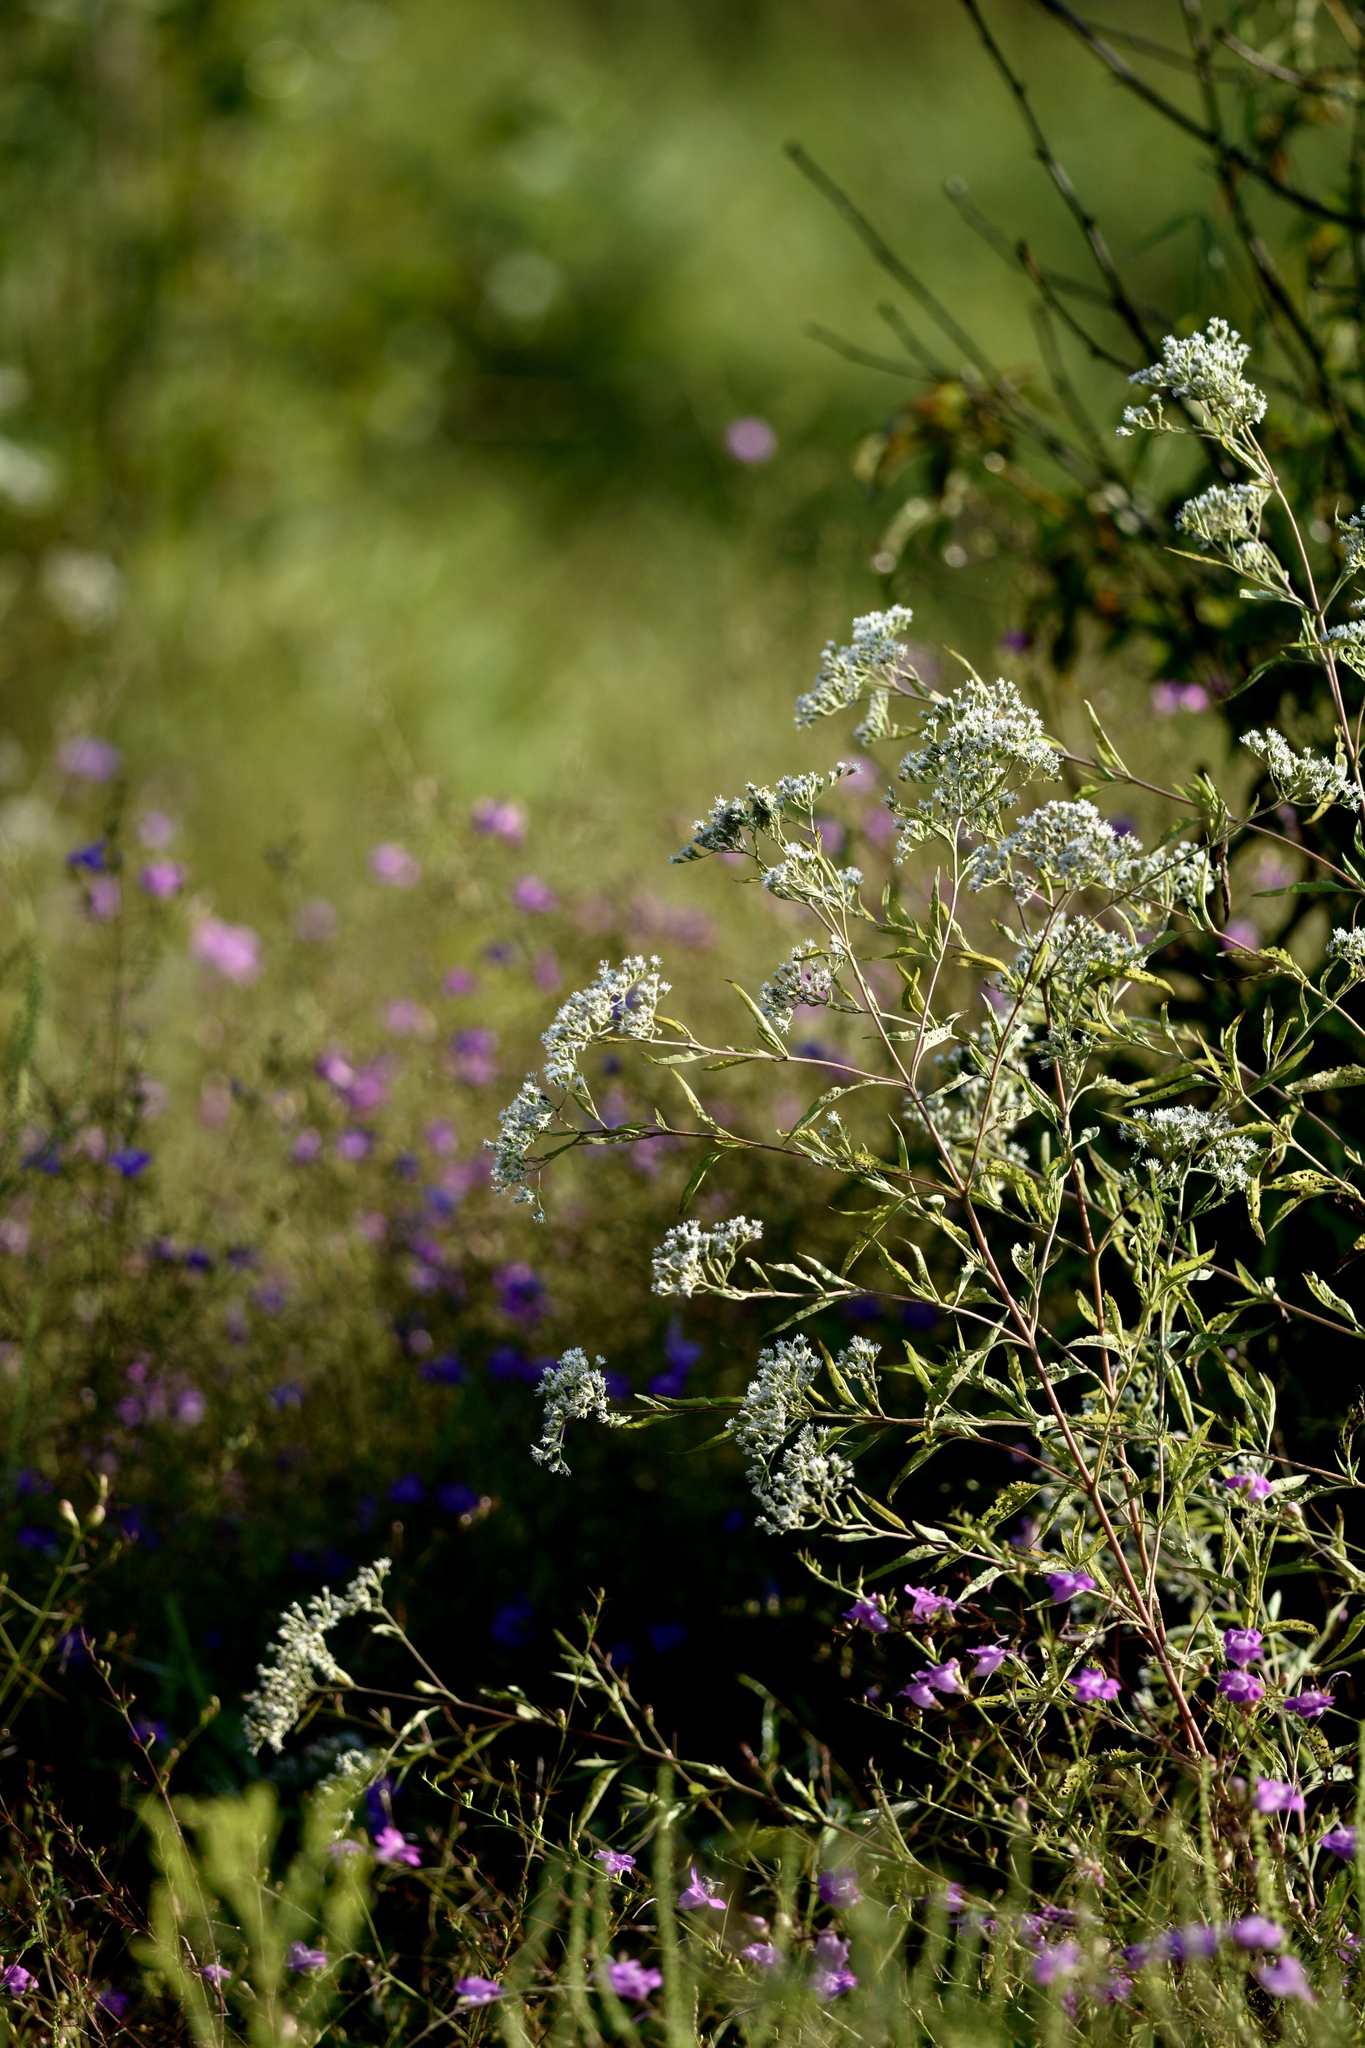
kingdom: Plantae
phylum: Tracheophyta
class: Magnoliopsida
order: Asterales
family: Asteraceae
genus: Eupatorium
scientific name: Eupatorium serotinum
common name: Late boneset
